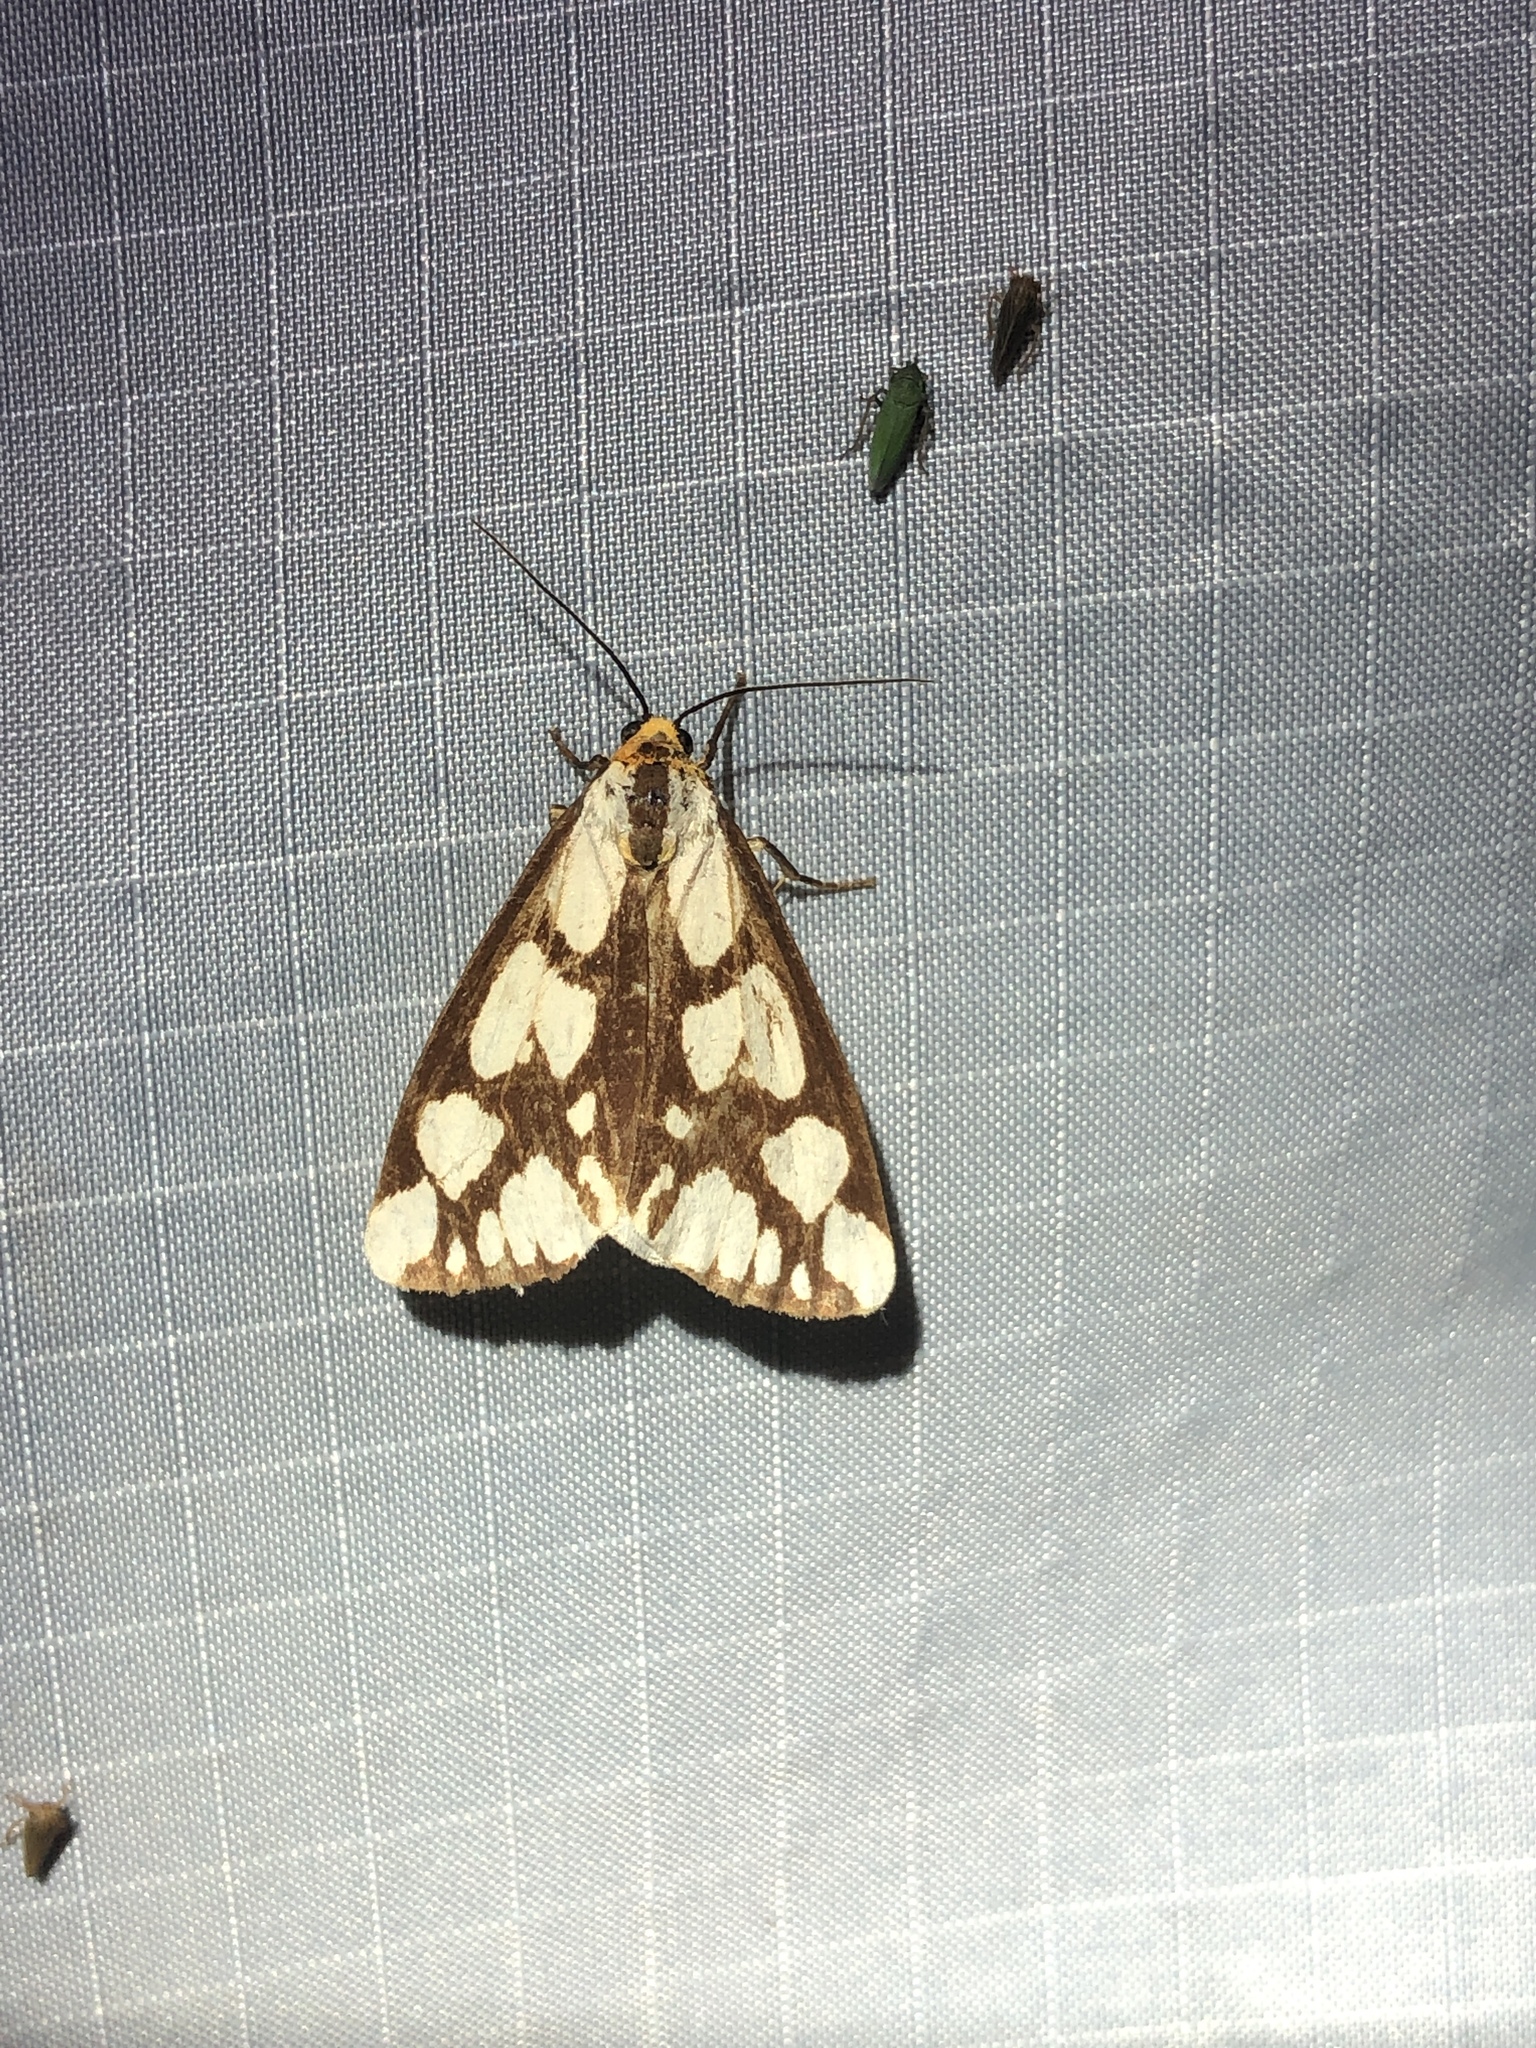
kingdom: Animalia
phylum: Arthropoda
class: Insecta
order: Lepidoptera
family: Erebidae
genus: Haploa
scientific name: Haploa confusa
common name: Confused haploa moth
